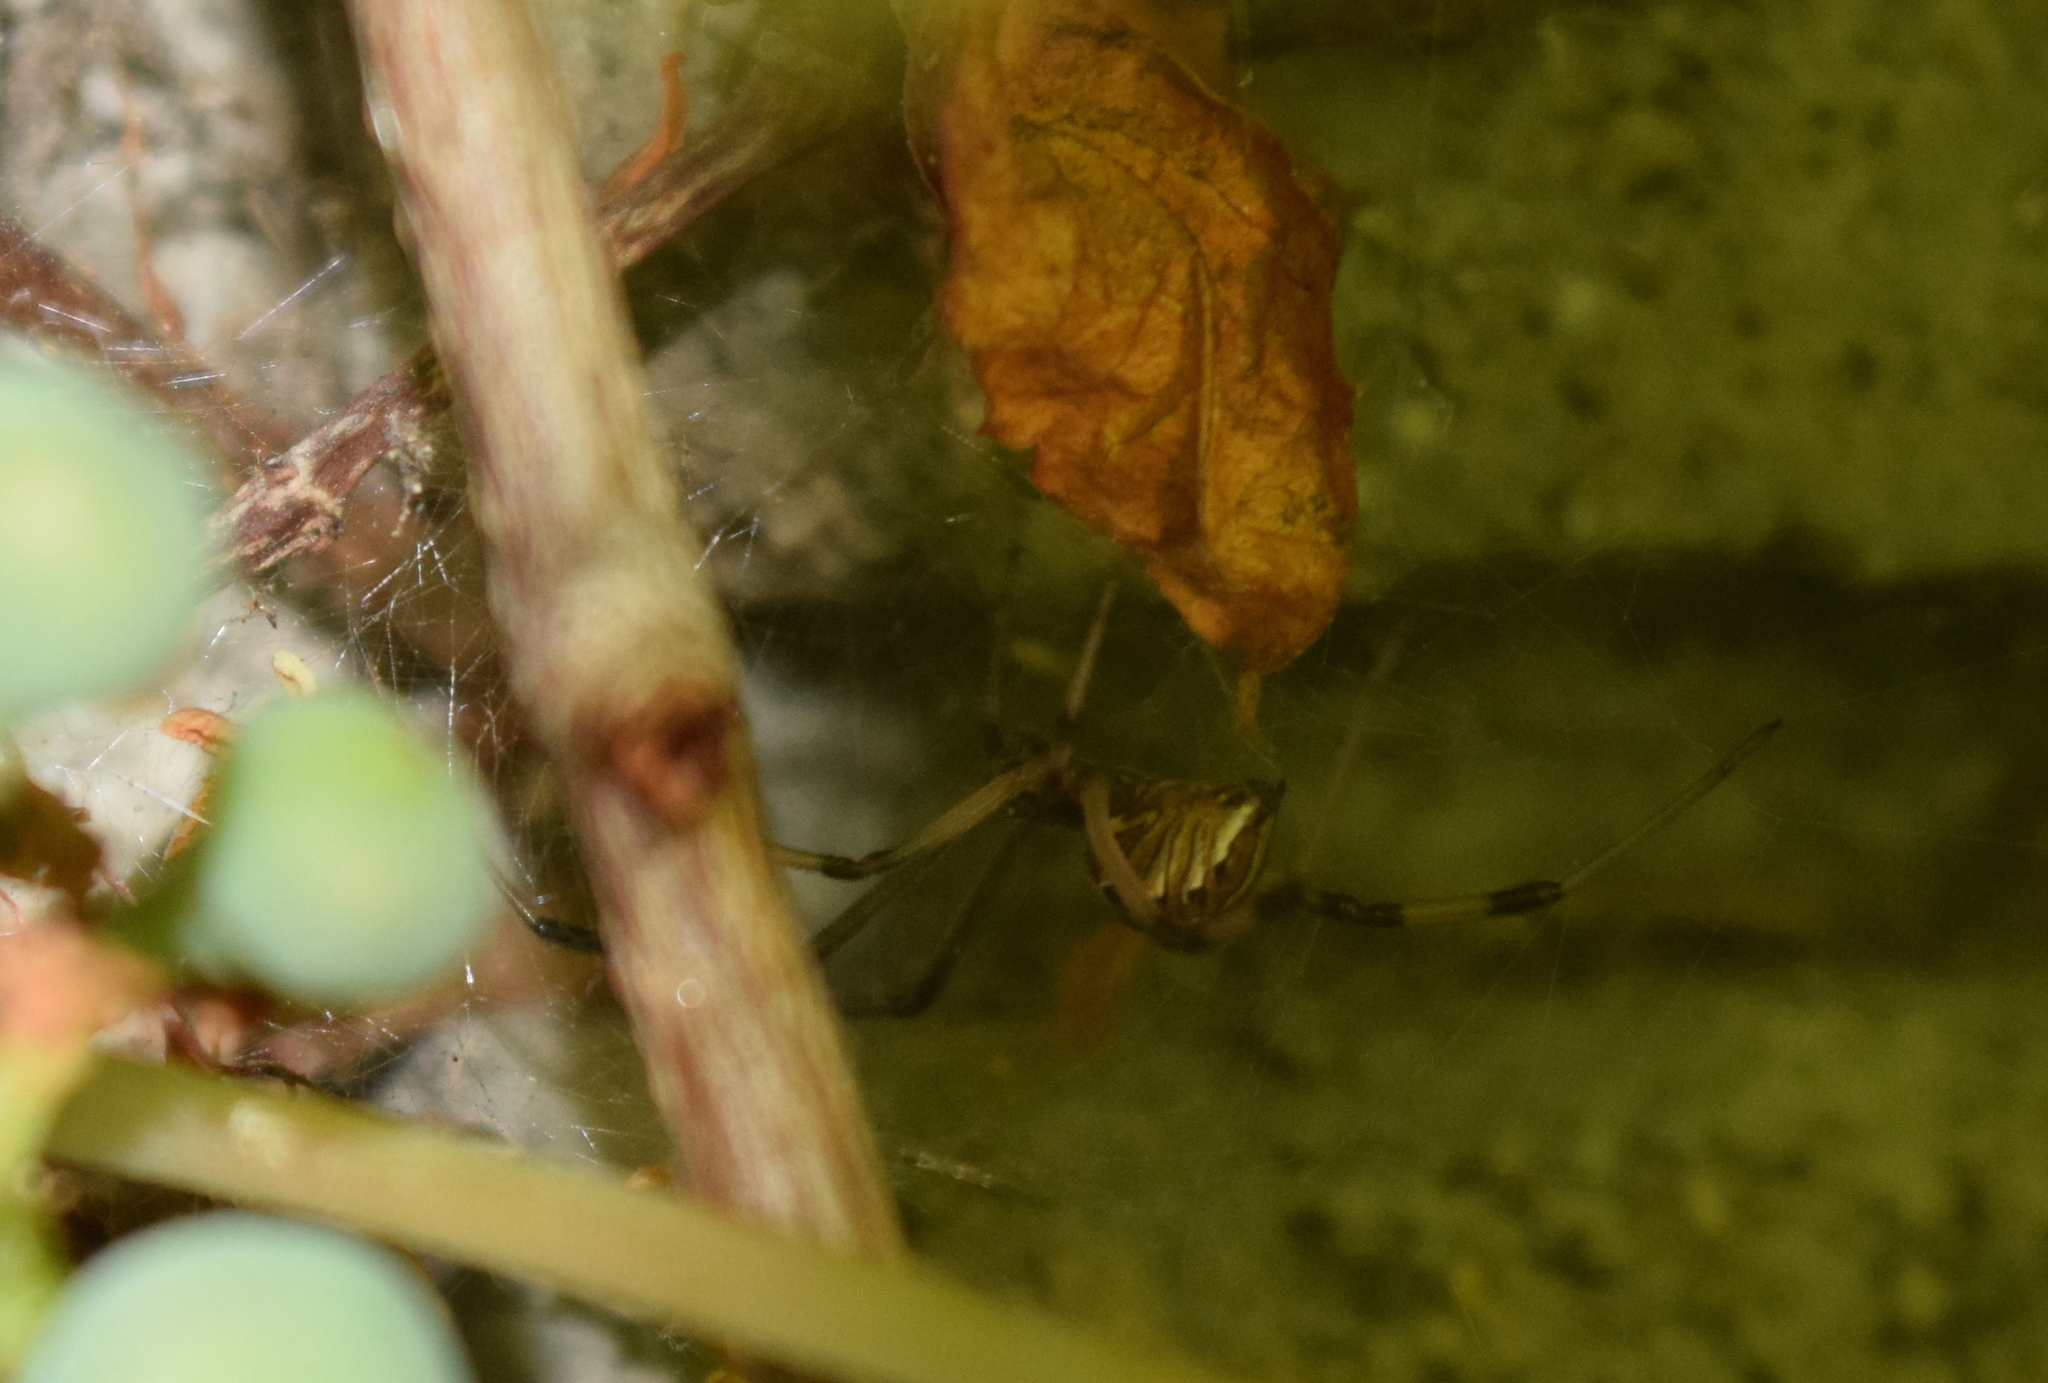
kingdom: Animalia
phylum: Arthropoda
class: Arachnida
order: Araneae
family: Theridiidae
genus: Latrodectus
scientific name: Latrodectus geometricus
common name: Brown widow spider
